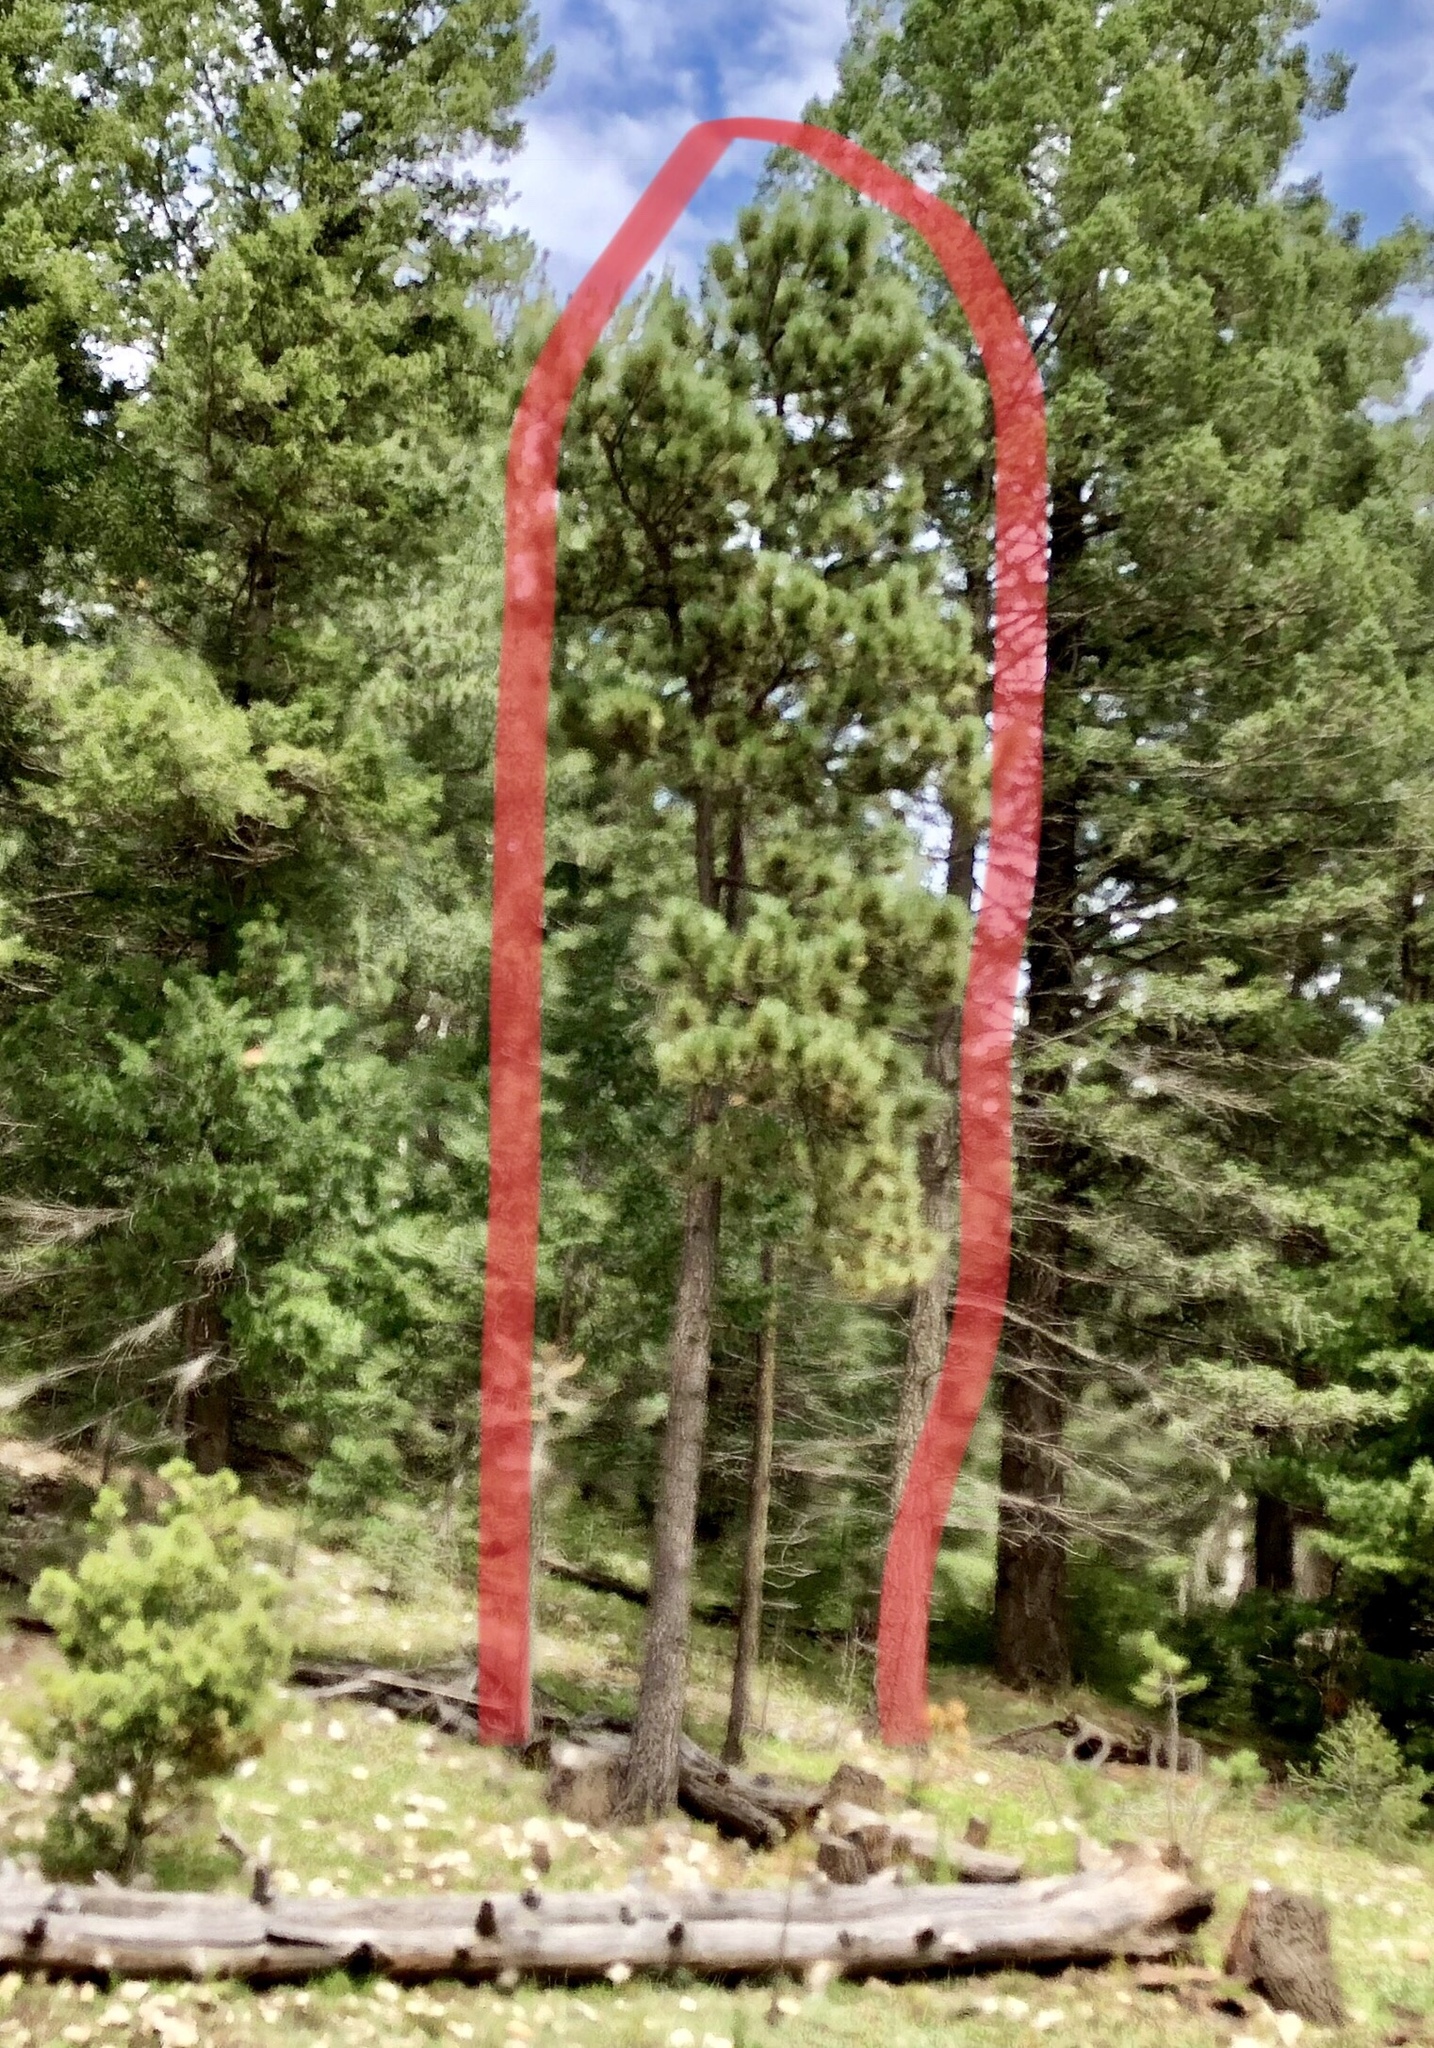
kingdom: Plantae
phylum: Tracheophyta
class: Pinopsida
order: Pinales
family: Pinaceae
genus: Pinus
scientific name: Pinus ponderosa
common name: Western yellow-pine
